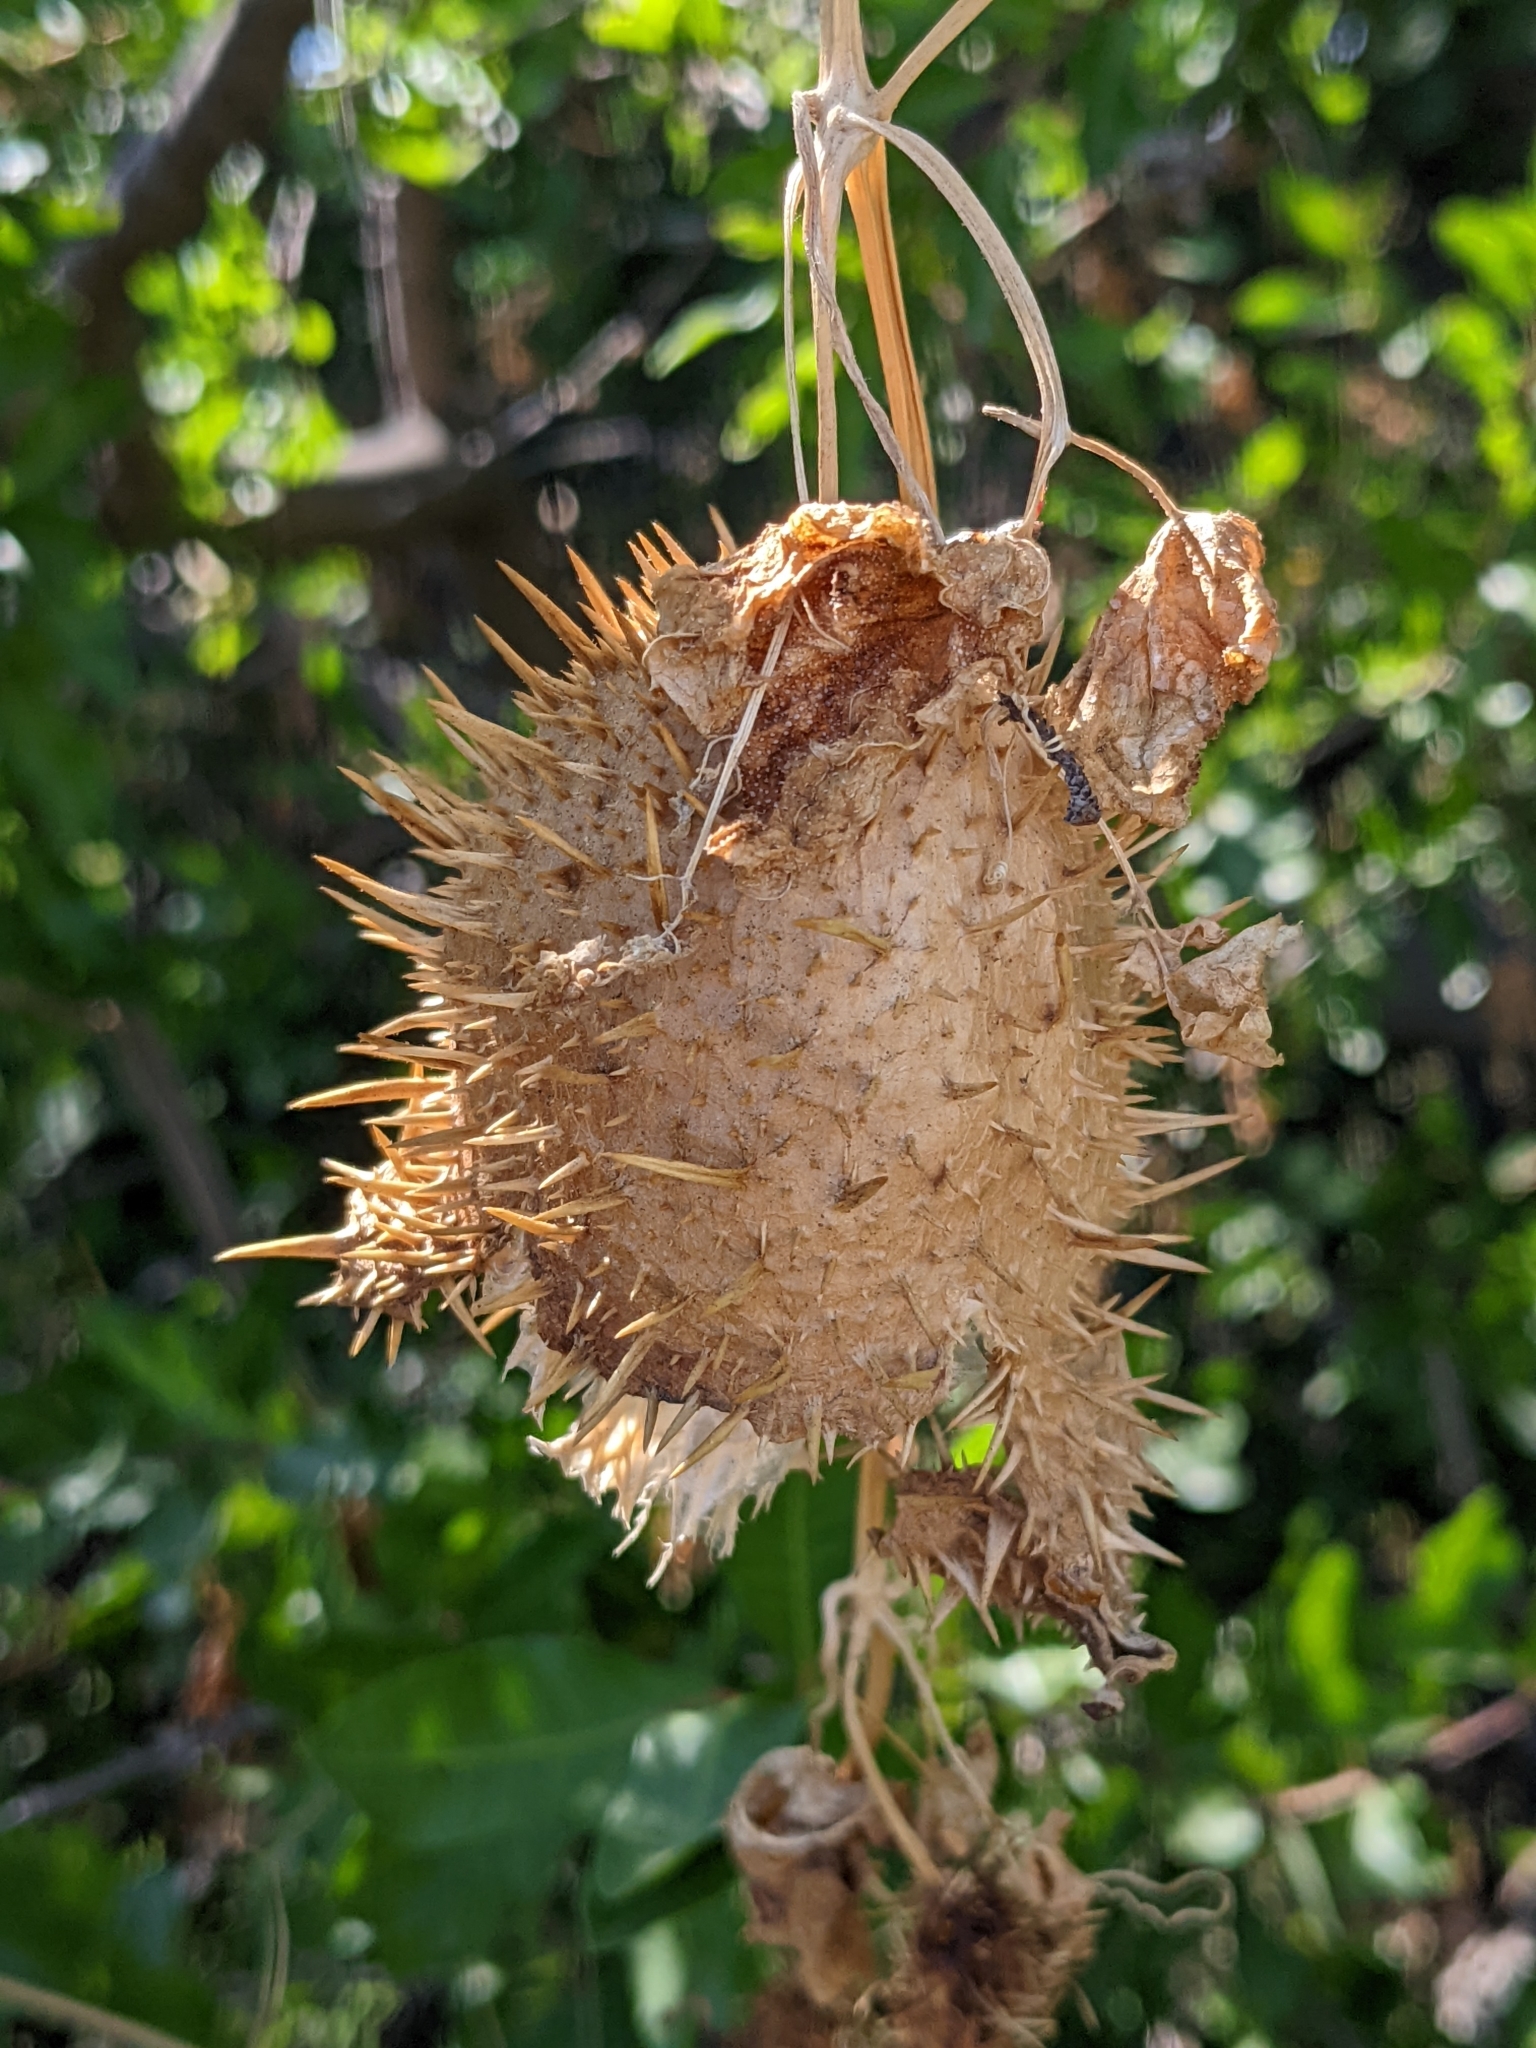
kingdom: Plantae
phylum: Tracheophyta
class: Magnoliopsida
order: Cucurbitales
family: Cucurbitaceae
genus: Marah
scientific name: Marah macrocarpa
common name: Cucamonga manroot
